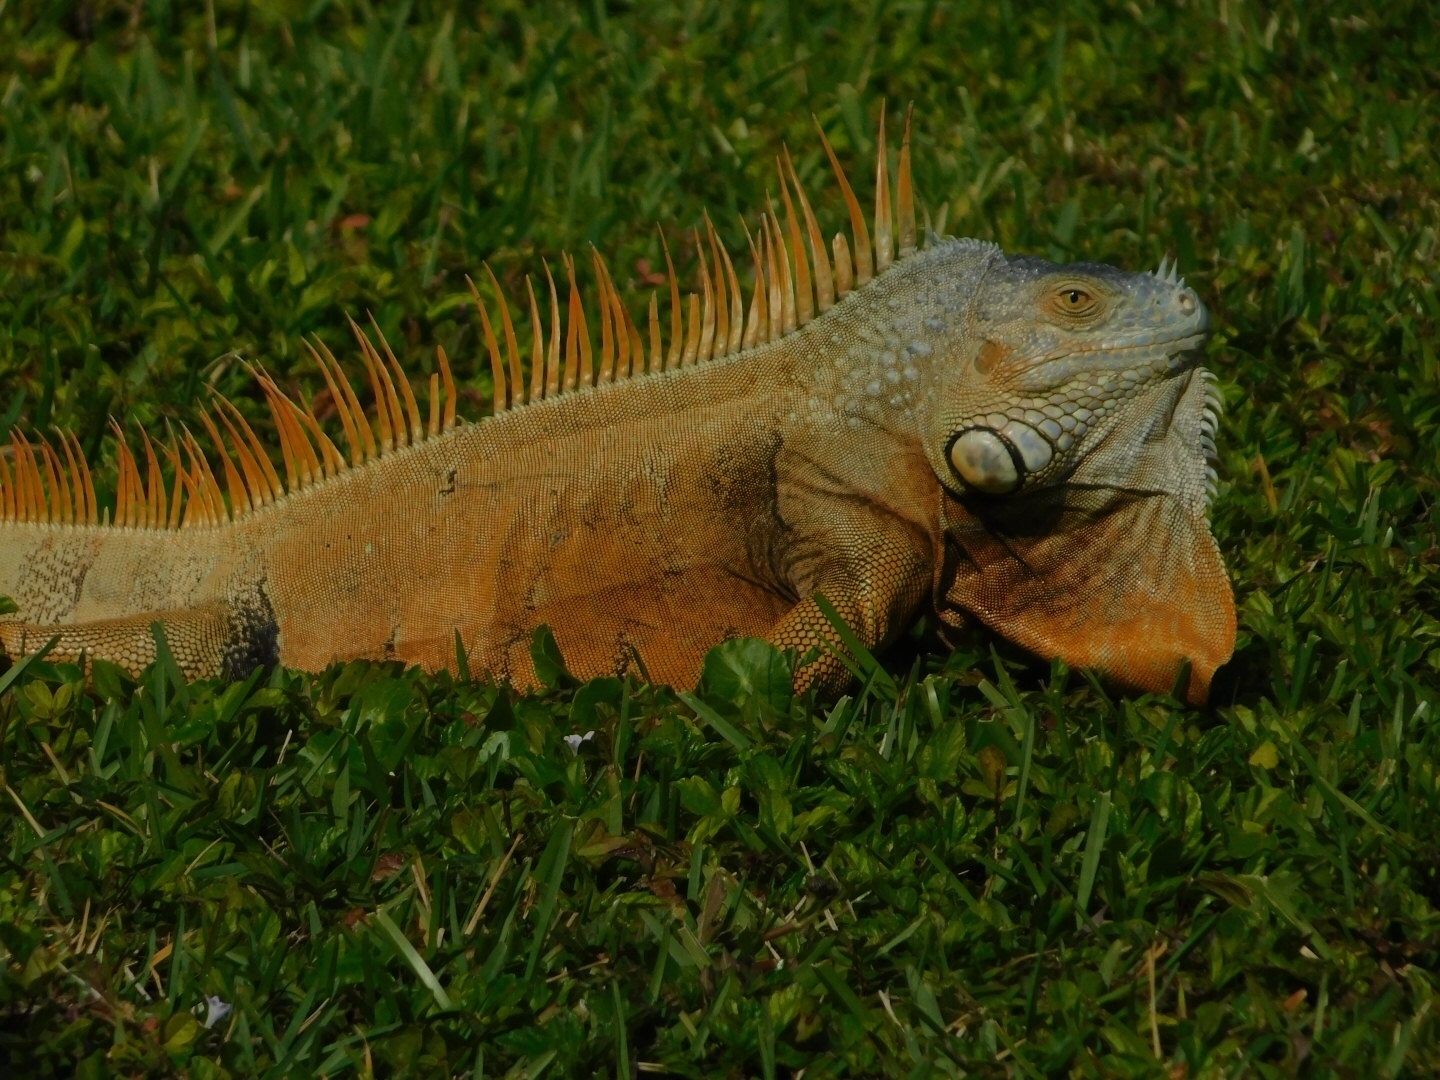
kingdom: Animalia
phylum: Chordata
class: Squamata
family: Iguanidae
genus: Iguana
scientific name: Iguana iguana
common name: Green iguana
